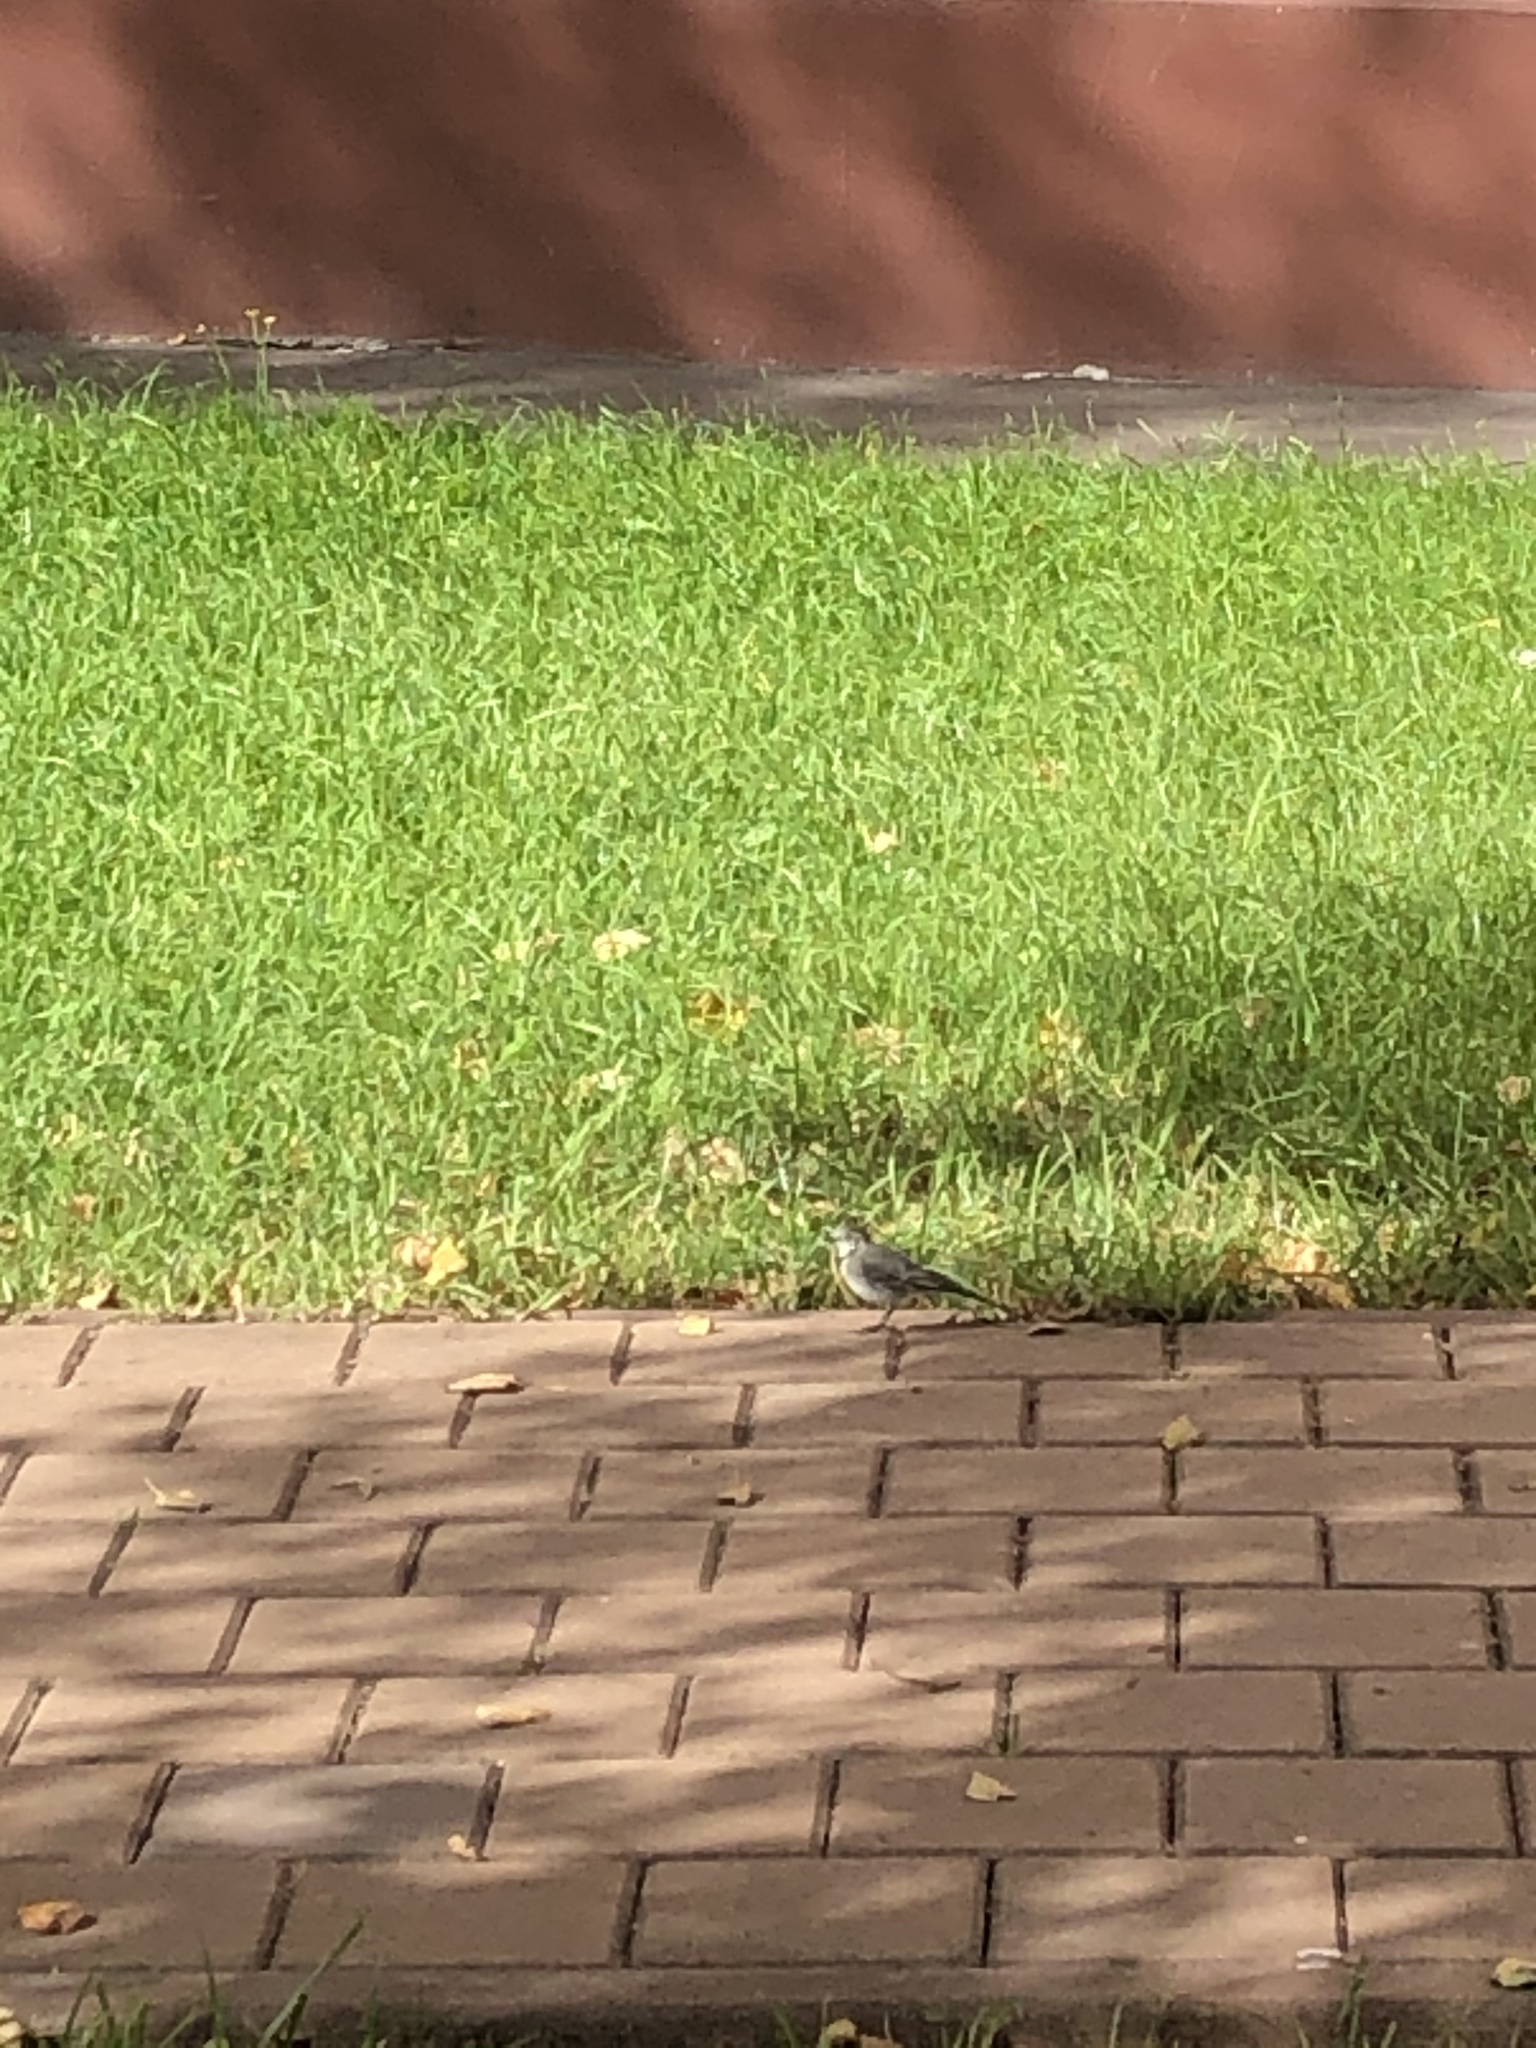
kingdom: Animalia
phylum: Chordata
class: Aves
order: Passeriformes
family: Motacillidae
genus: Motacilla
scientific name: Motacilla alba
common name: White wagtail
